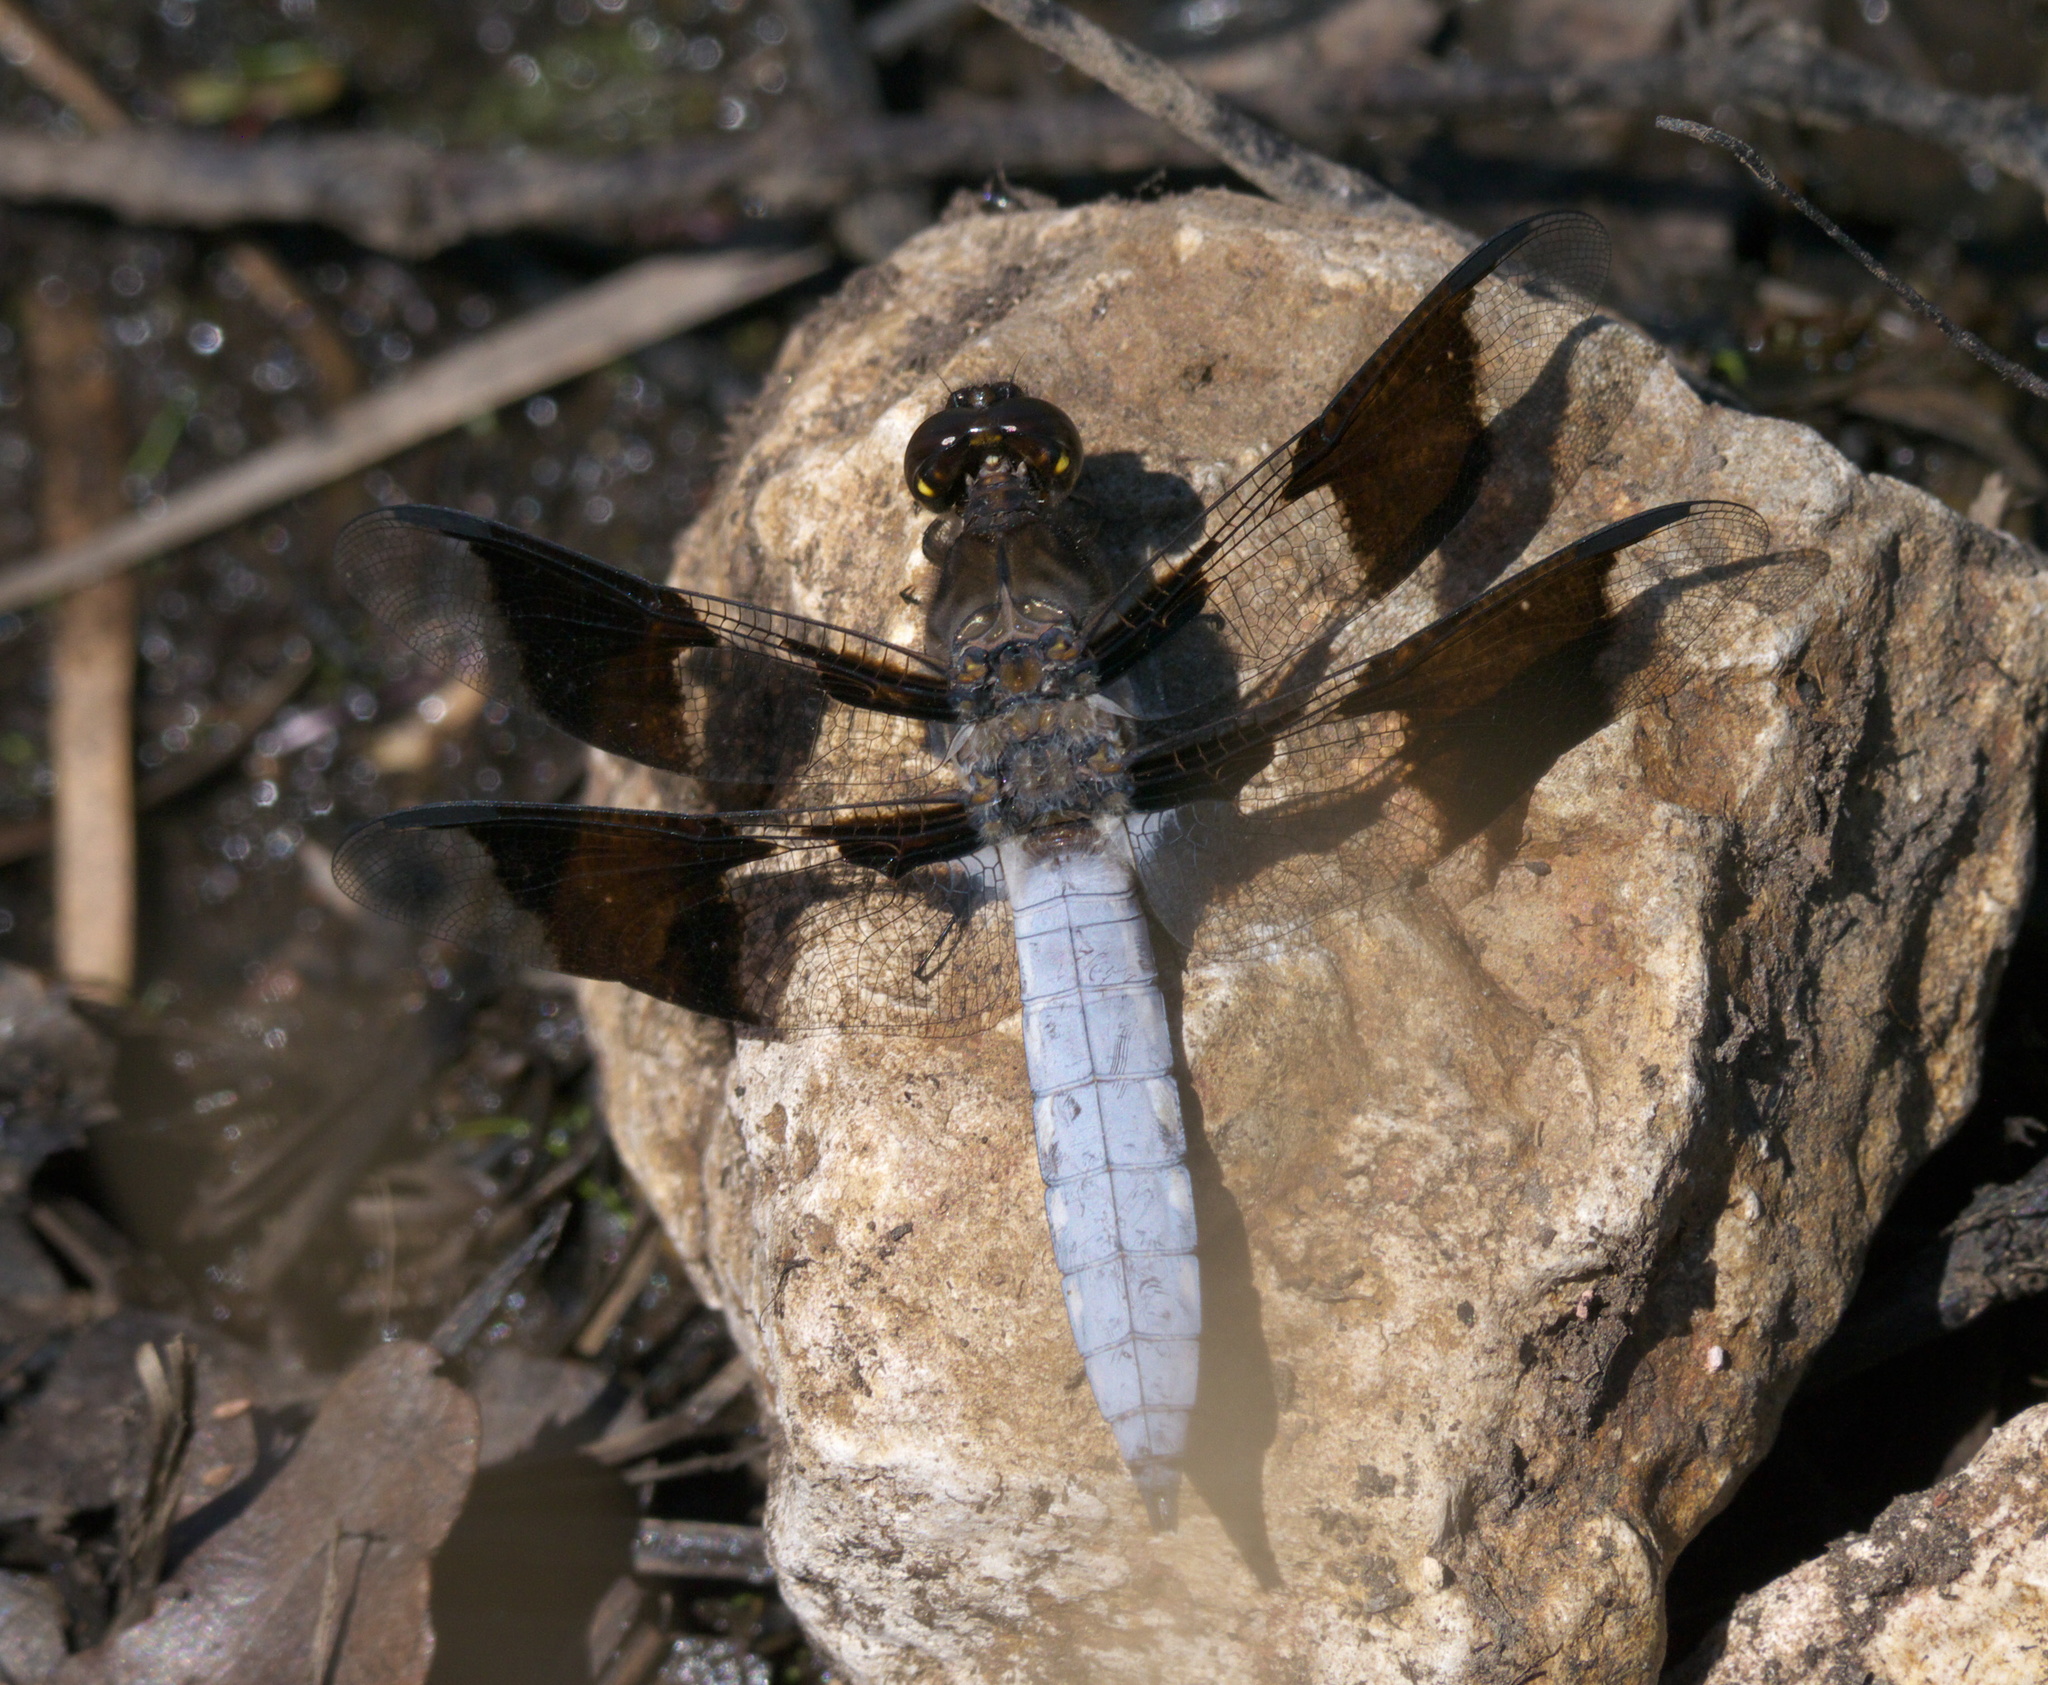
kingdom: Animalia
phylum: Arthropoda
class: Insecta
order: Odonata
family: Libellulidae
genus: Plathemis
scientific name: Plathemis lydia
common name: Common whitetail
